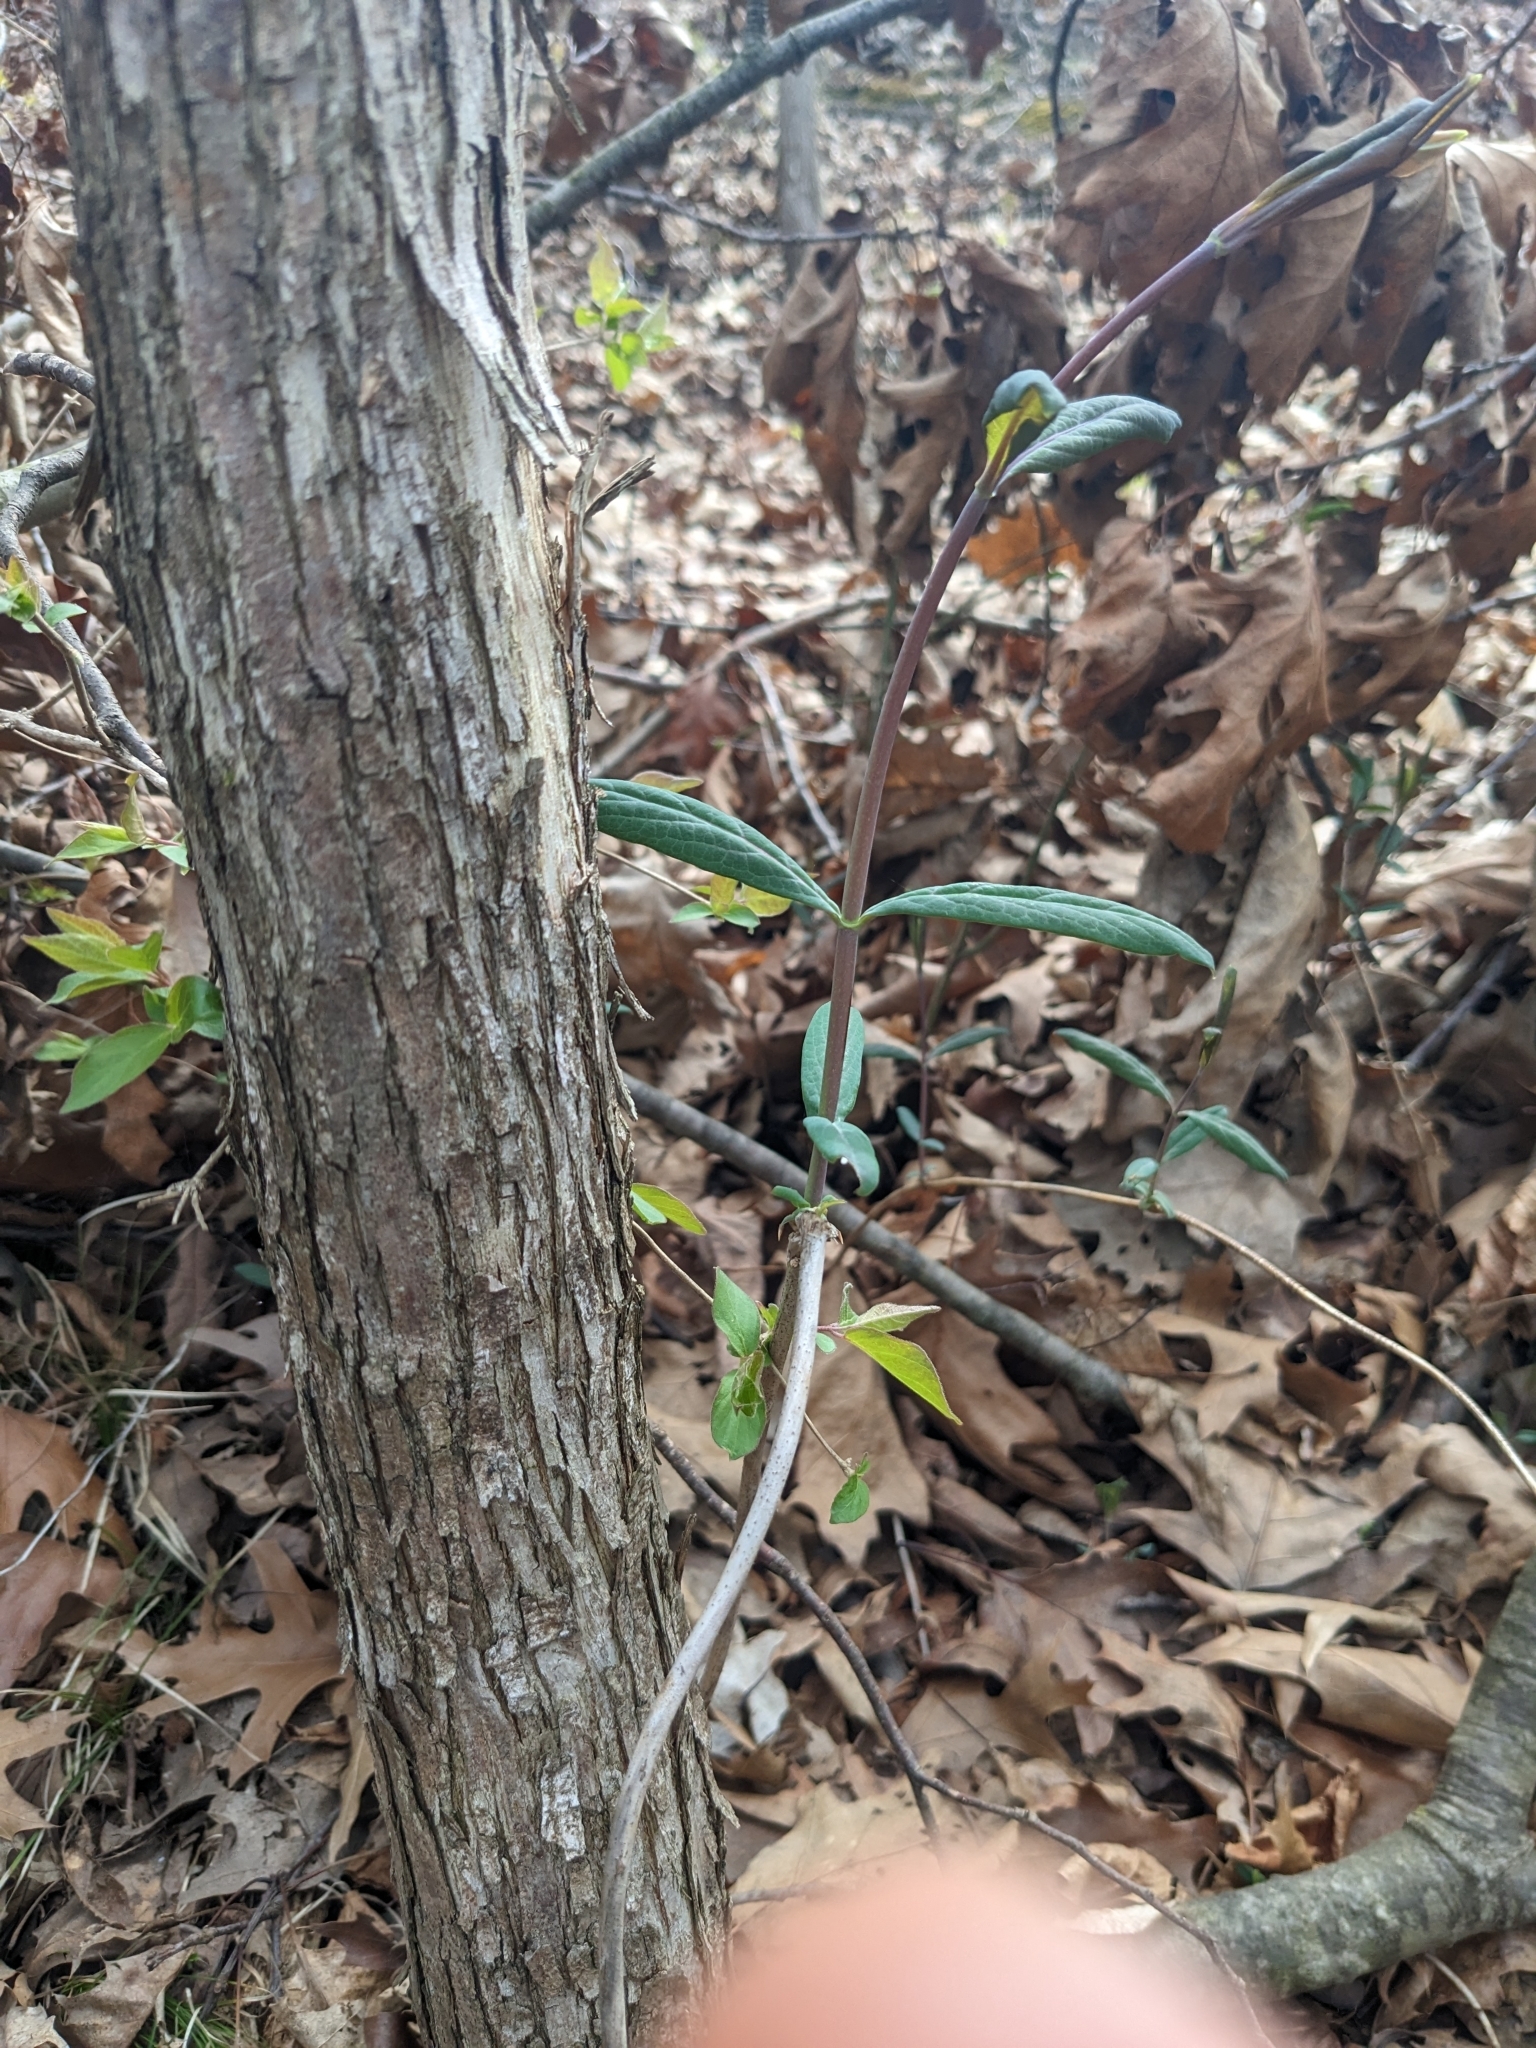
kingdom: Plantae
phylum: Tracheophyta
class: Magnoliopsida
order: Dipsacales
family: Caprifoliaceae
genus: Lonicera
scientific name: Lonicera dioica
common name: Limber honeysuckle
